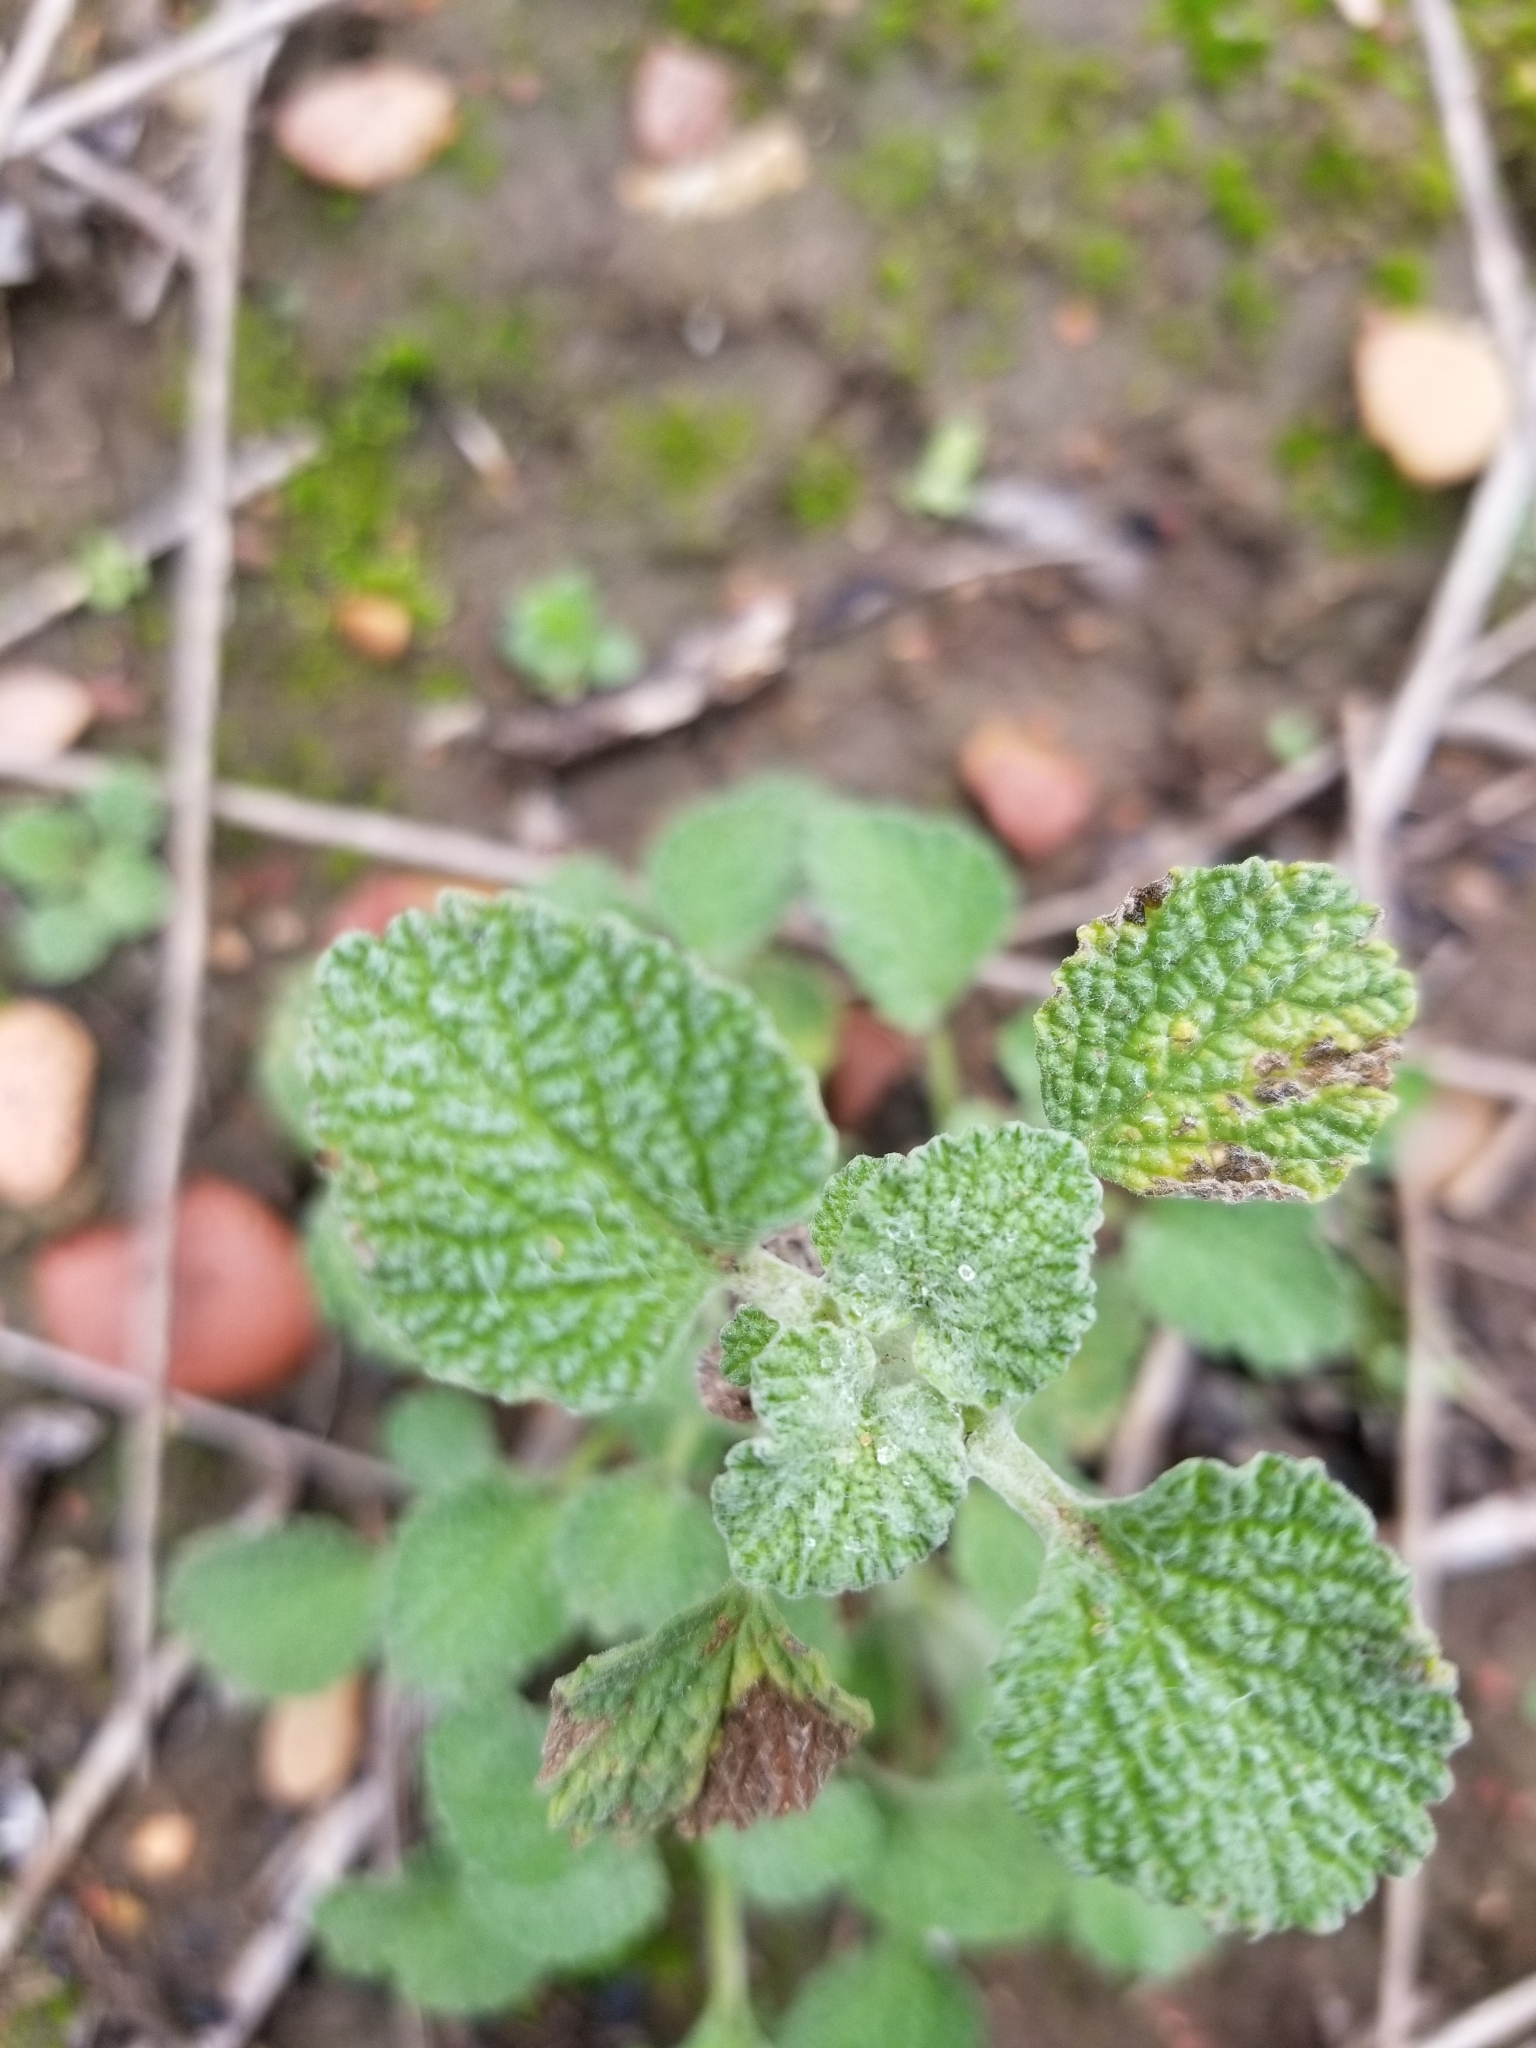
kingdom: Plantae
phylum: Tracheophyta
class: Magnoliopsida
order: Lamiales
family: Lamiaceae
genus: Marrubium
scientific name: Marrubium vulgare
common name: Horehound
